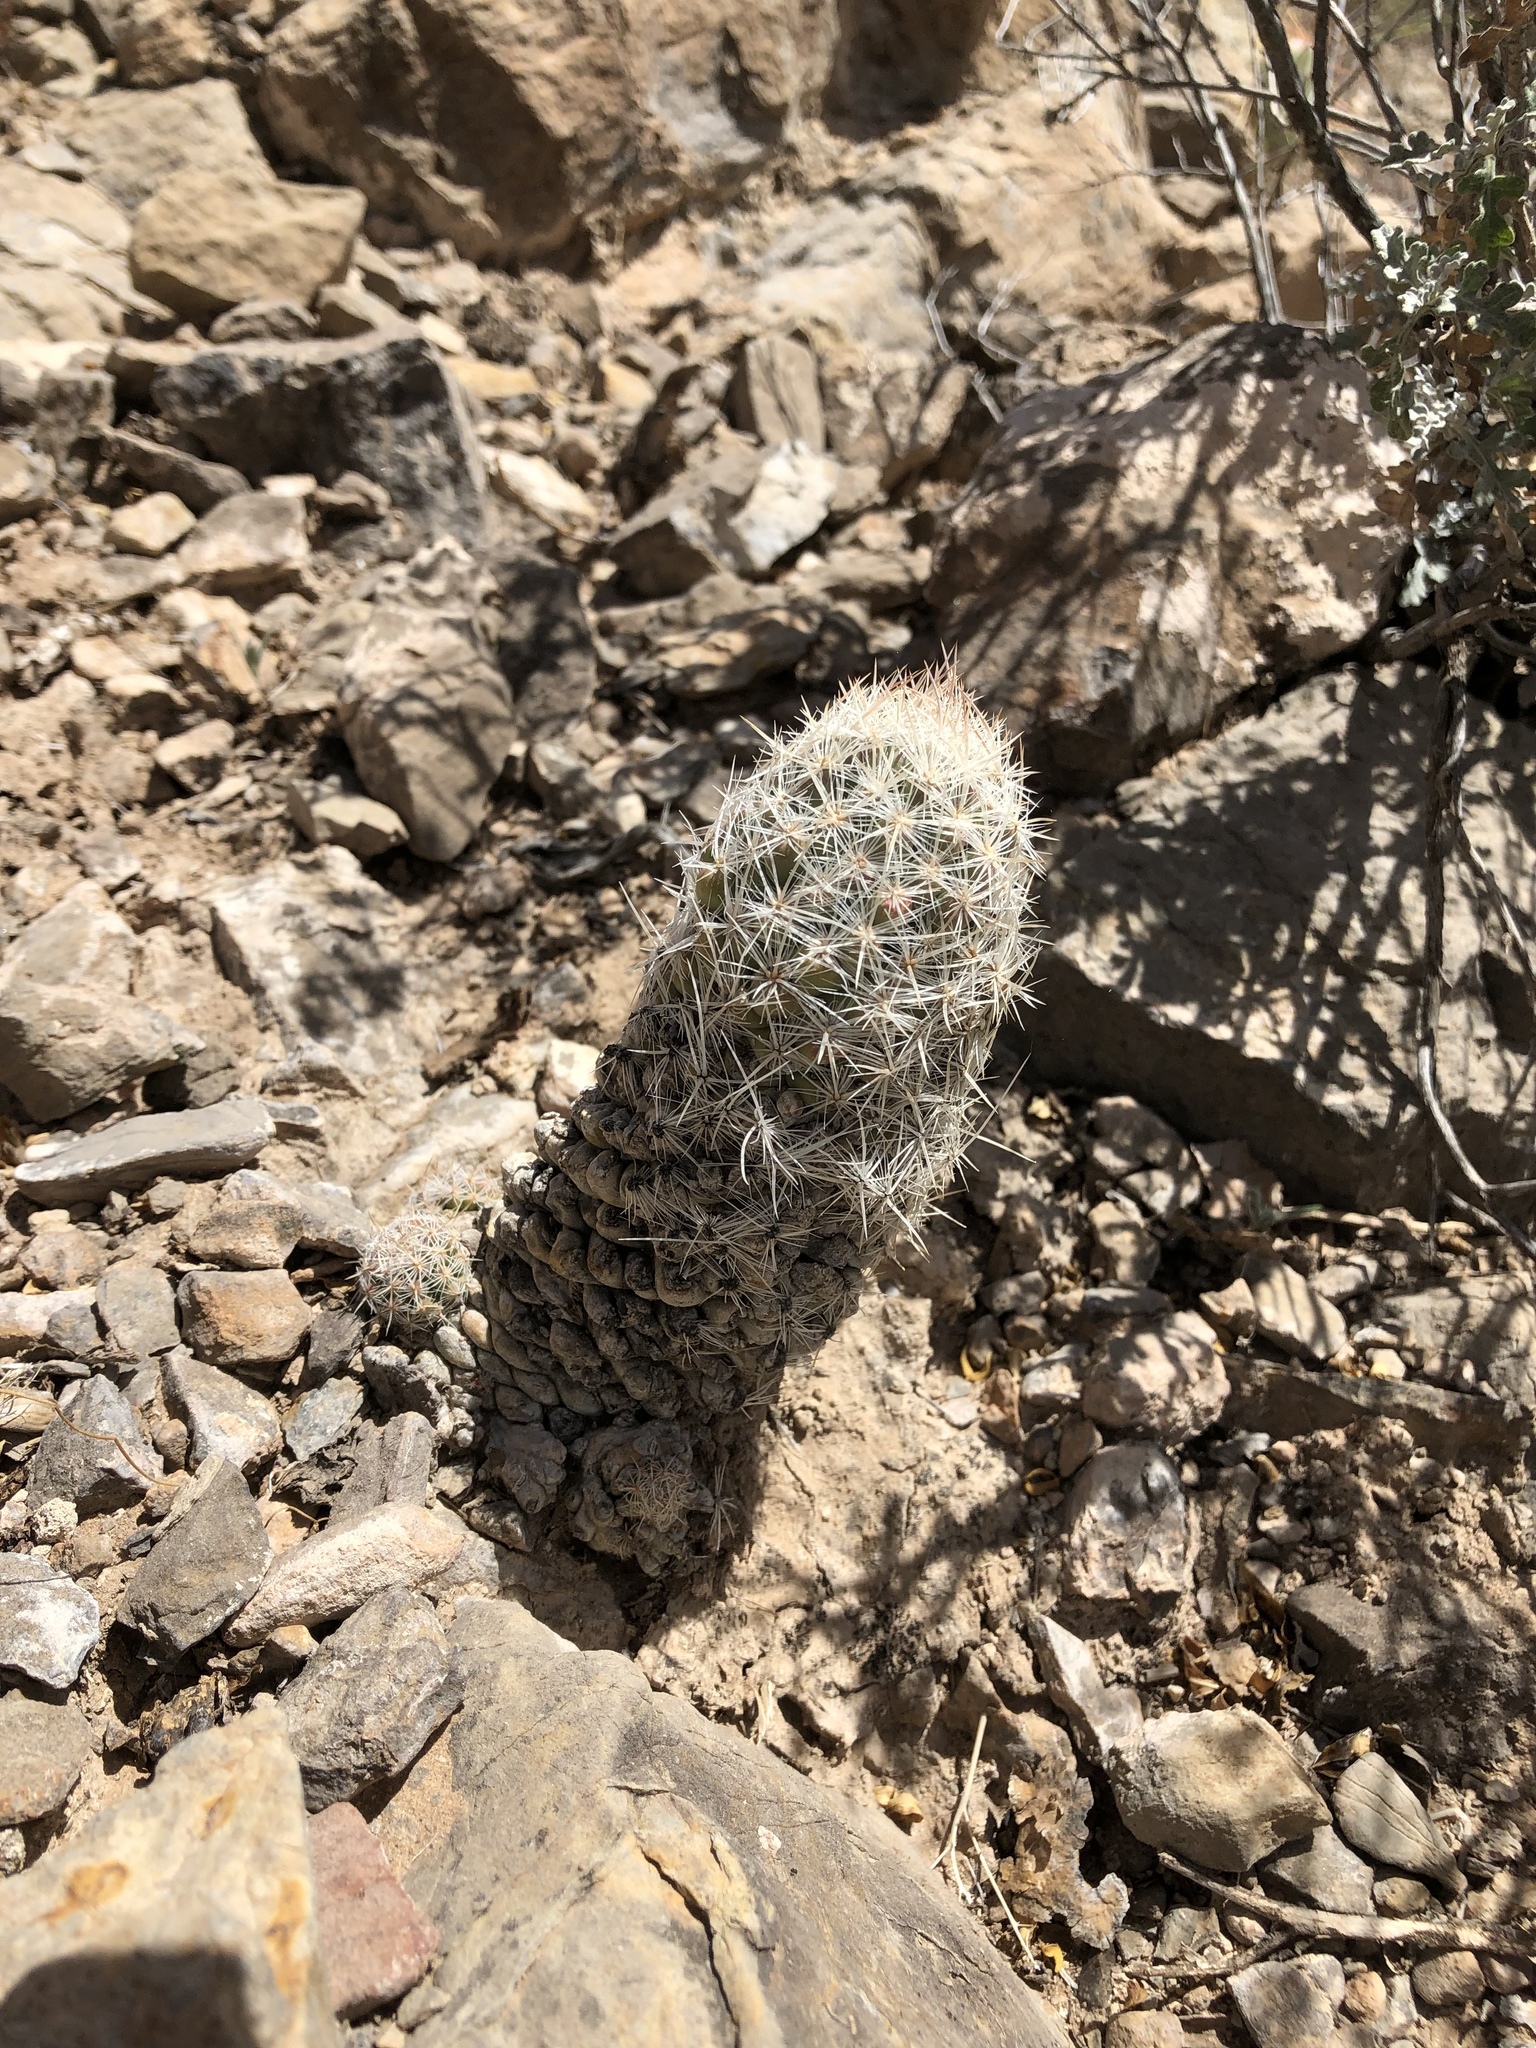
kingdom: Plantae
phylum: Tracheophyta
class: Magnoliopsida
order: Caryophyllales
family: Cactaceae
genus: Pelecyphora
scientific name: Pelecyphora tuberculosa
